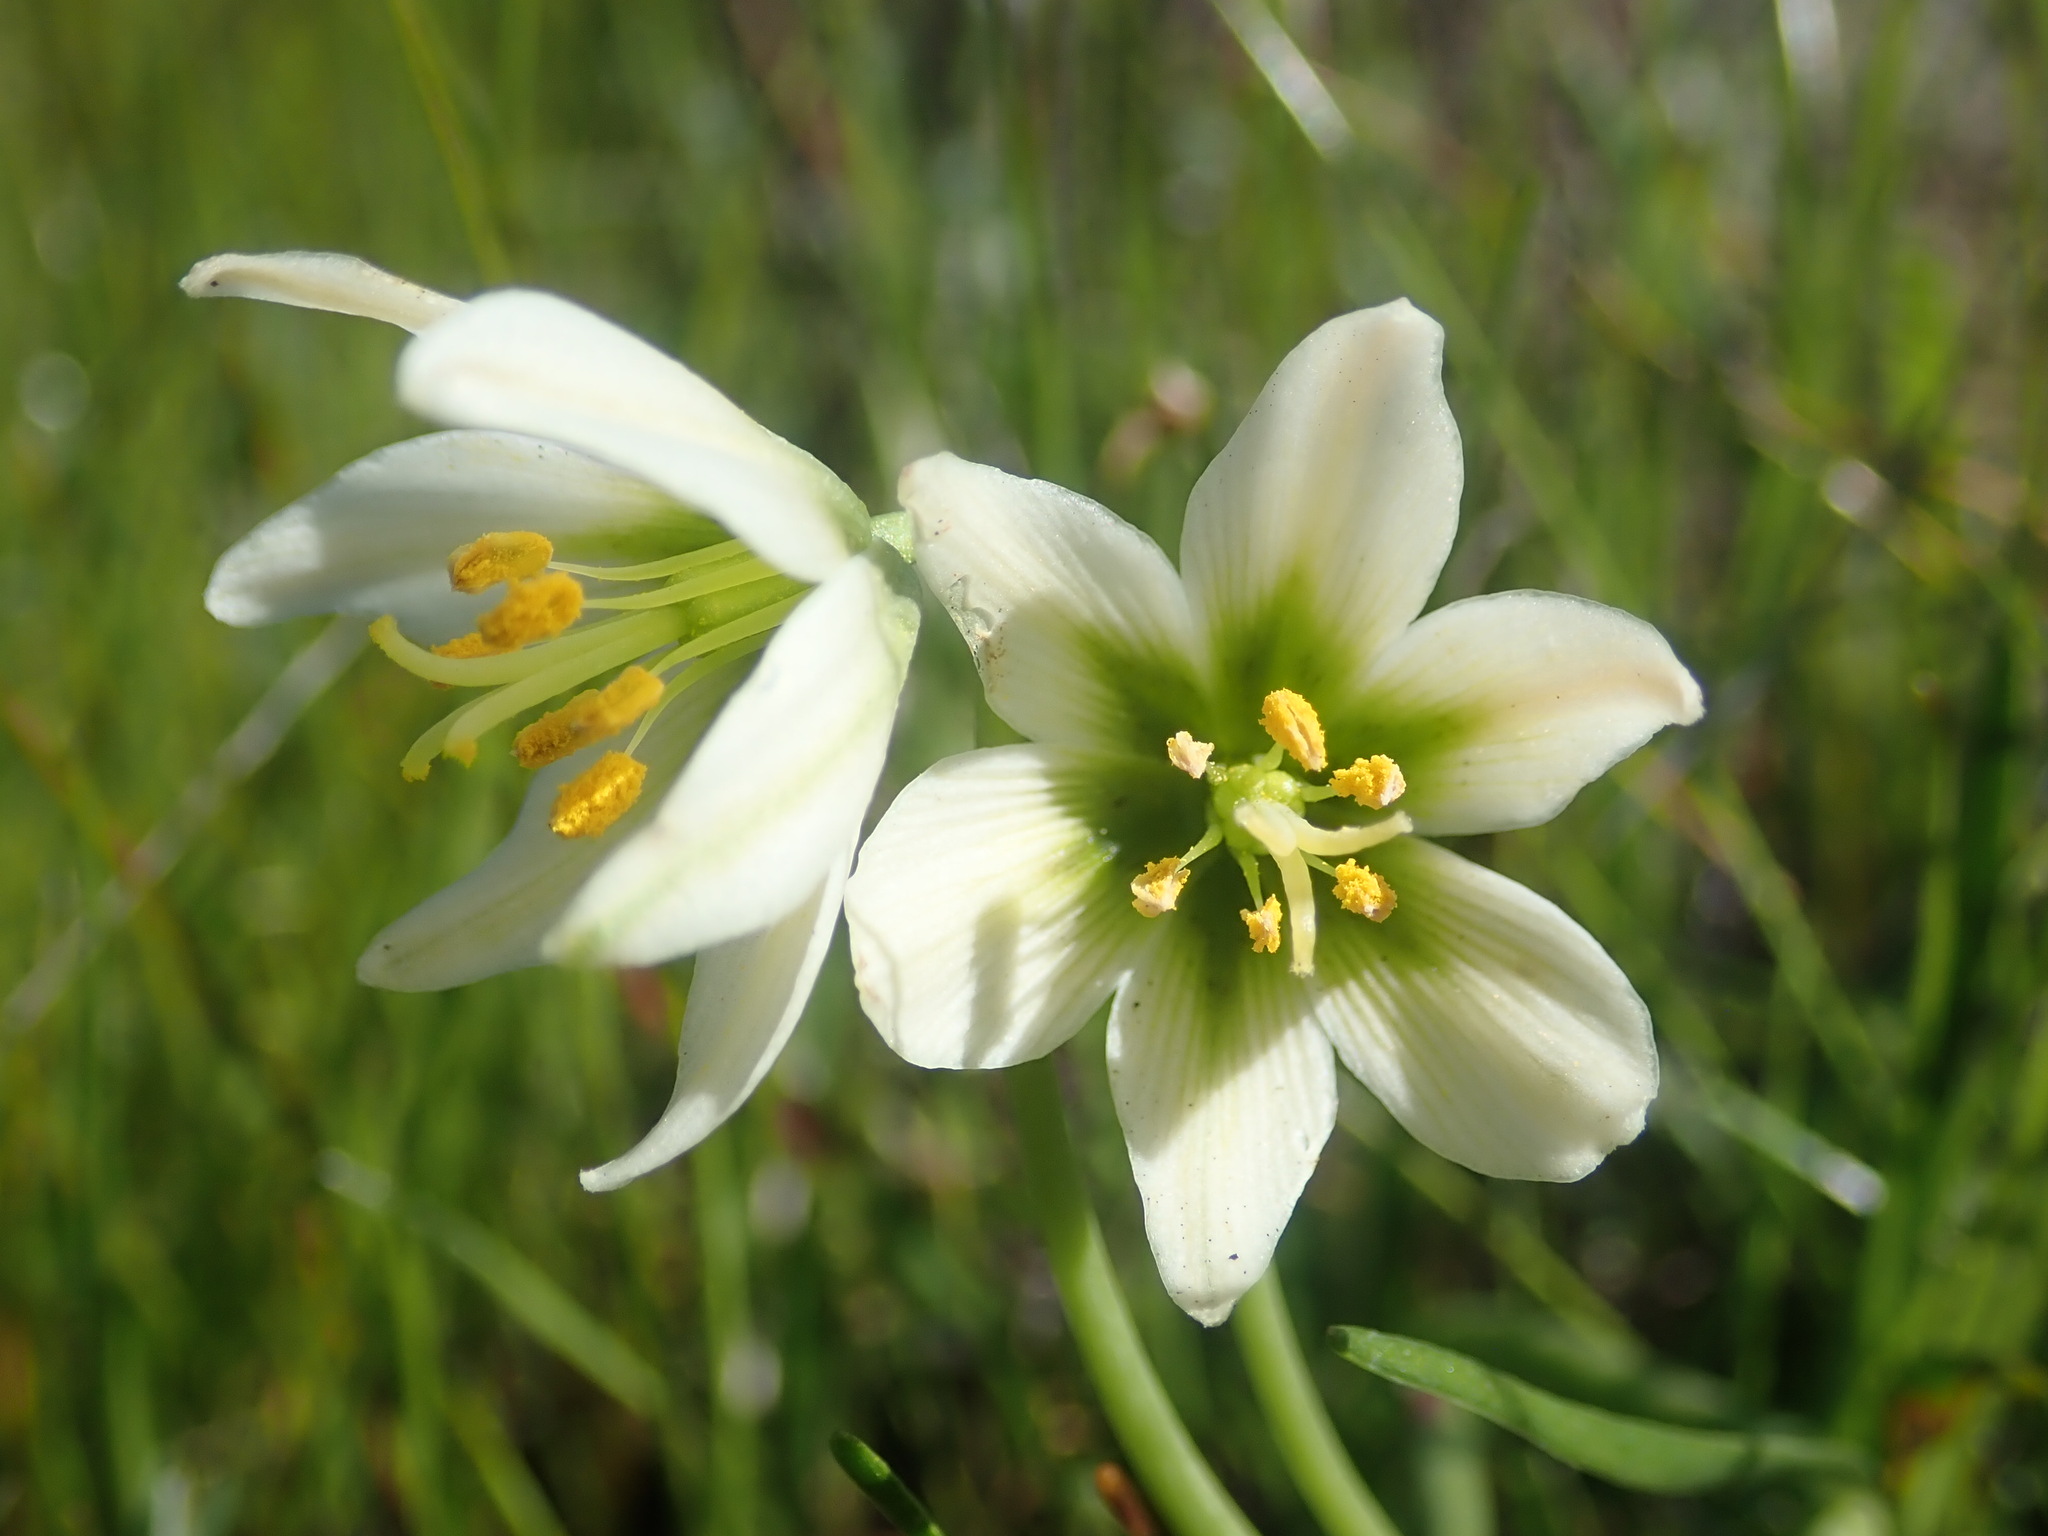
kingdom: Plantae
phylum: Tracheophyta
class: Liliopsida
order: Liliales
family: Liliaceae
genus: Fritillaria
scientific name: Fritillaria liliacea
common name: Fragrant fritillary
